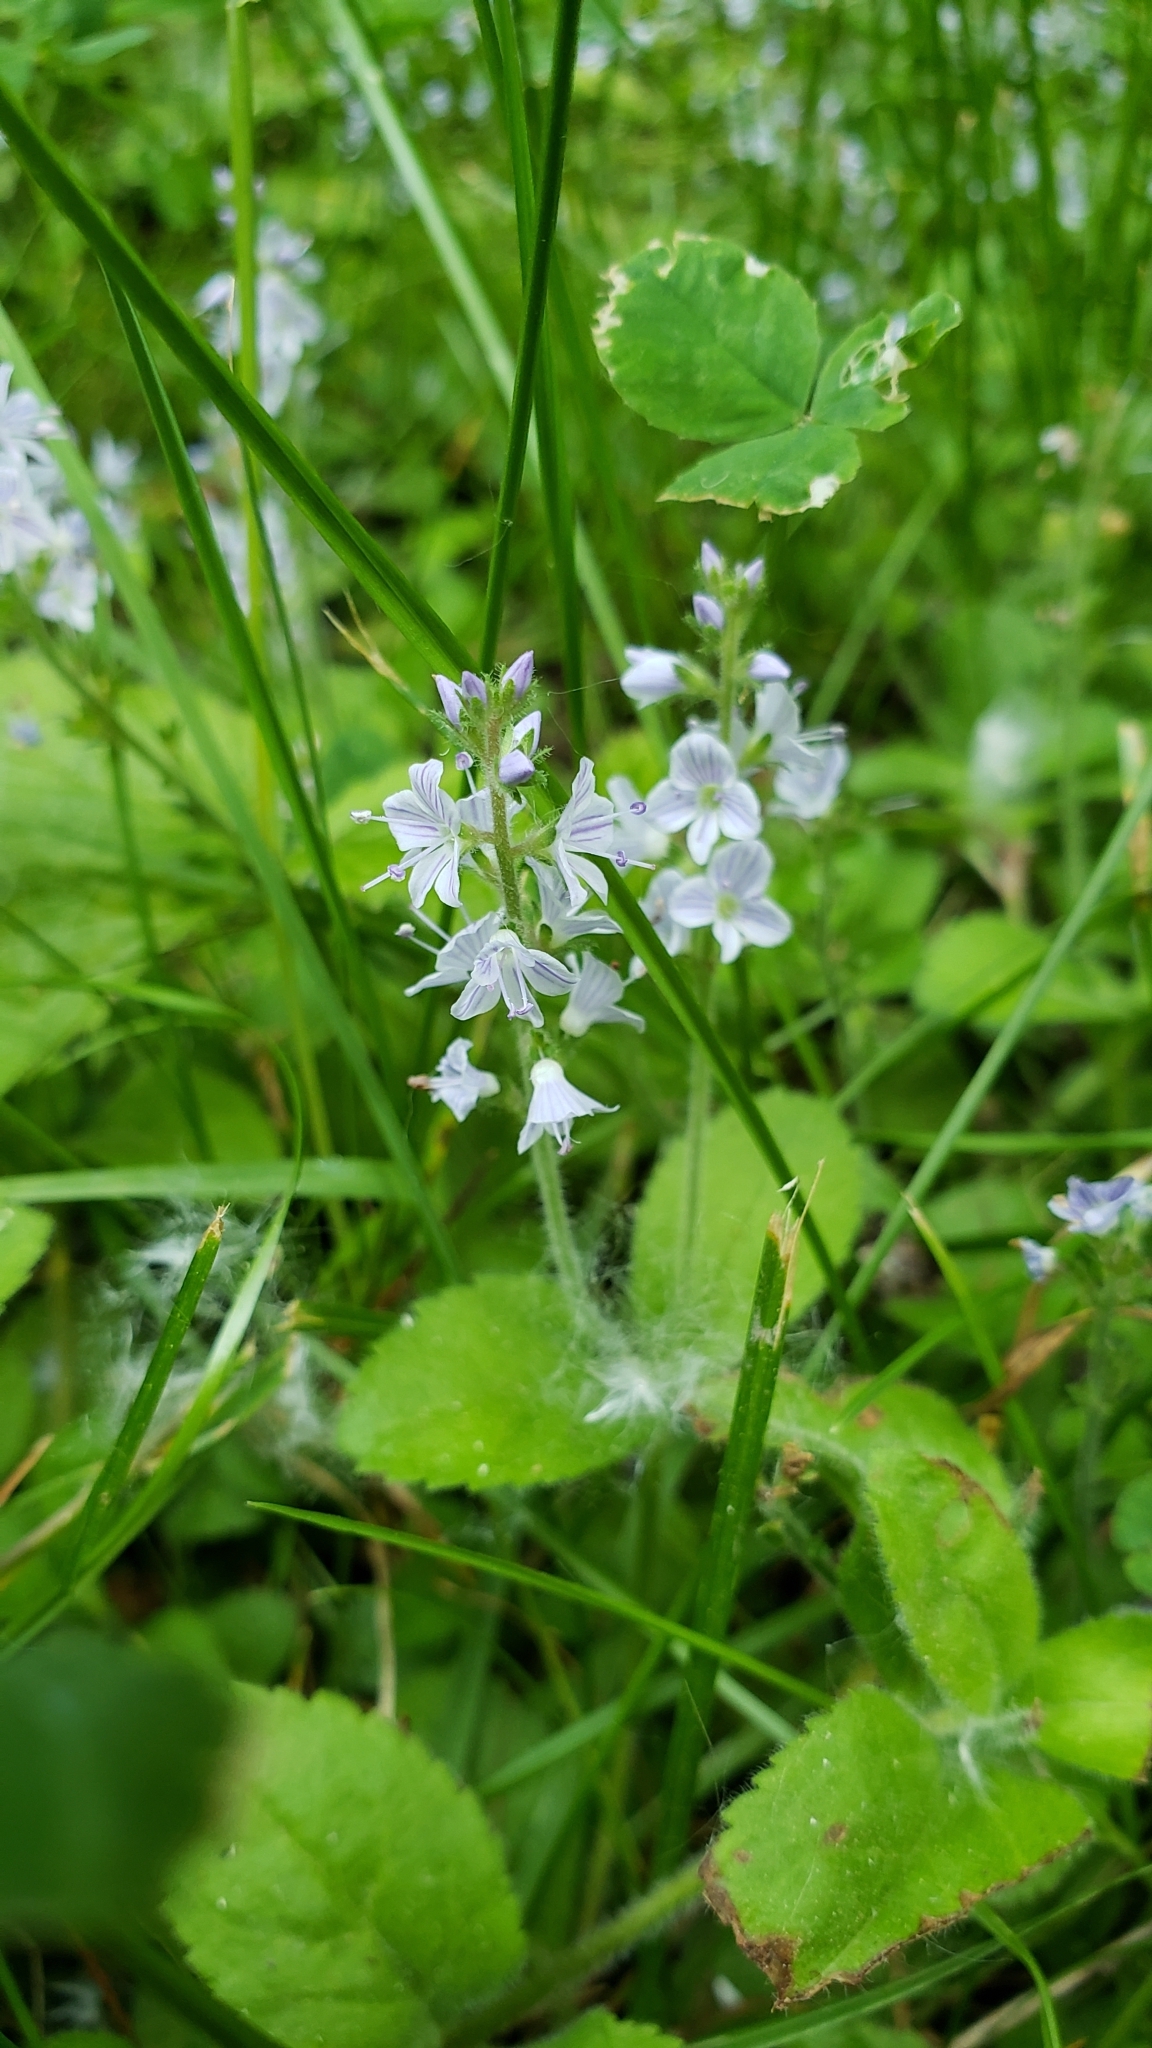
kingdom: Plantae
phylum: Tracheophyta
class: Magnoliopsida
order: Lamiales
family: Plantaginaceae
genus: Veronica
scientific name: Veronica officinalis
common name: Common speedwell
